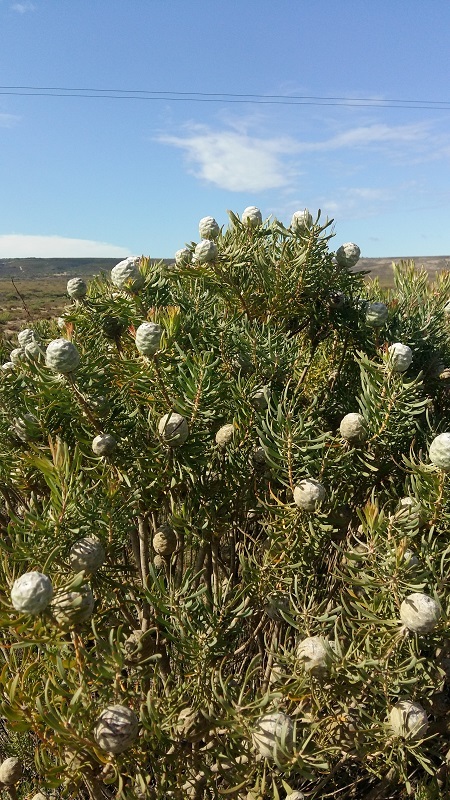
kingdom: Plantae
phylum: Tracheophyta
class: Magnoliopsida
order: Proteales
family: Proteaceae
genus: Leucadendron
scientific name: Leucadendron galpinii
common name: Hairless conebush
